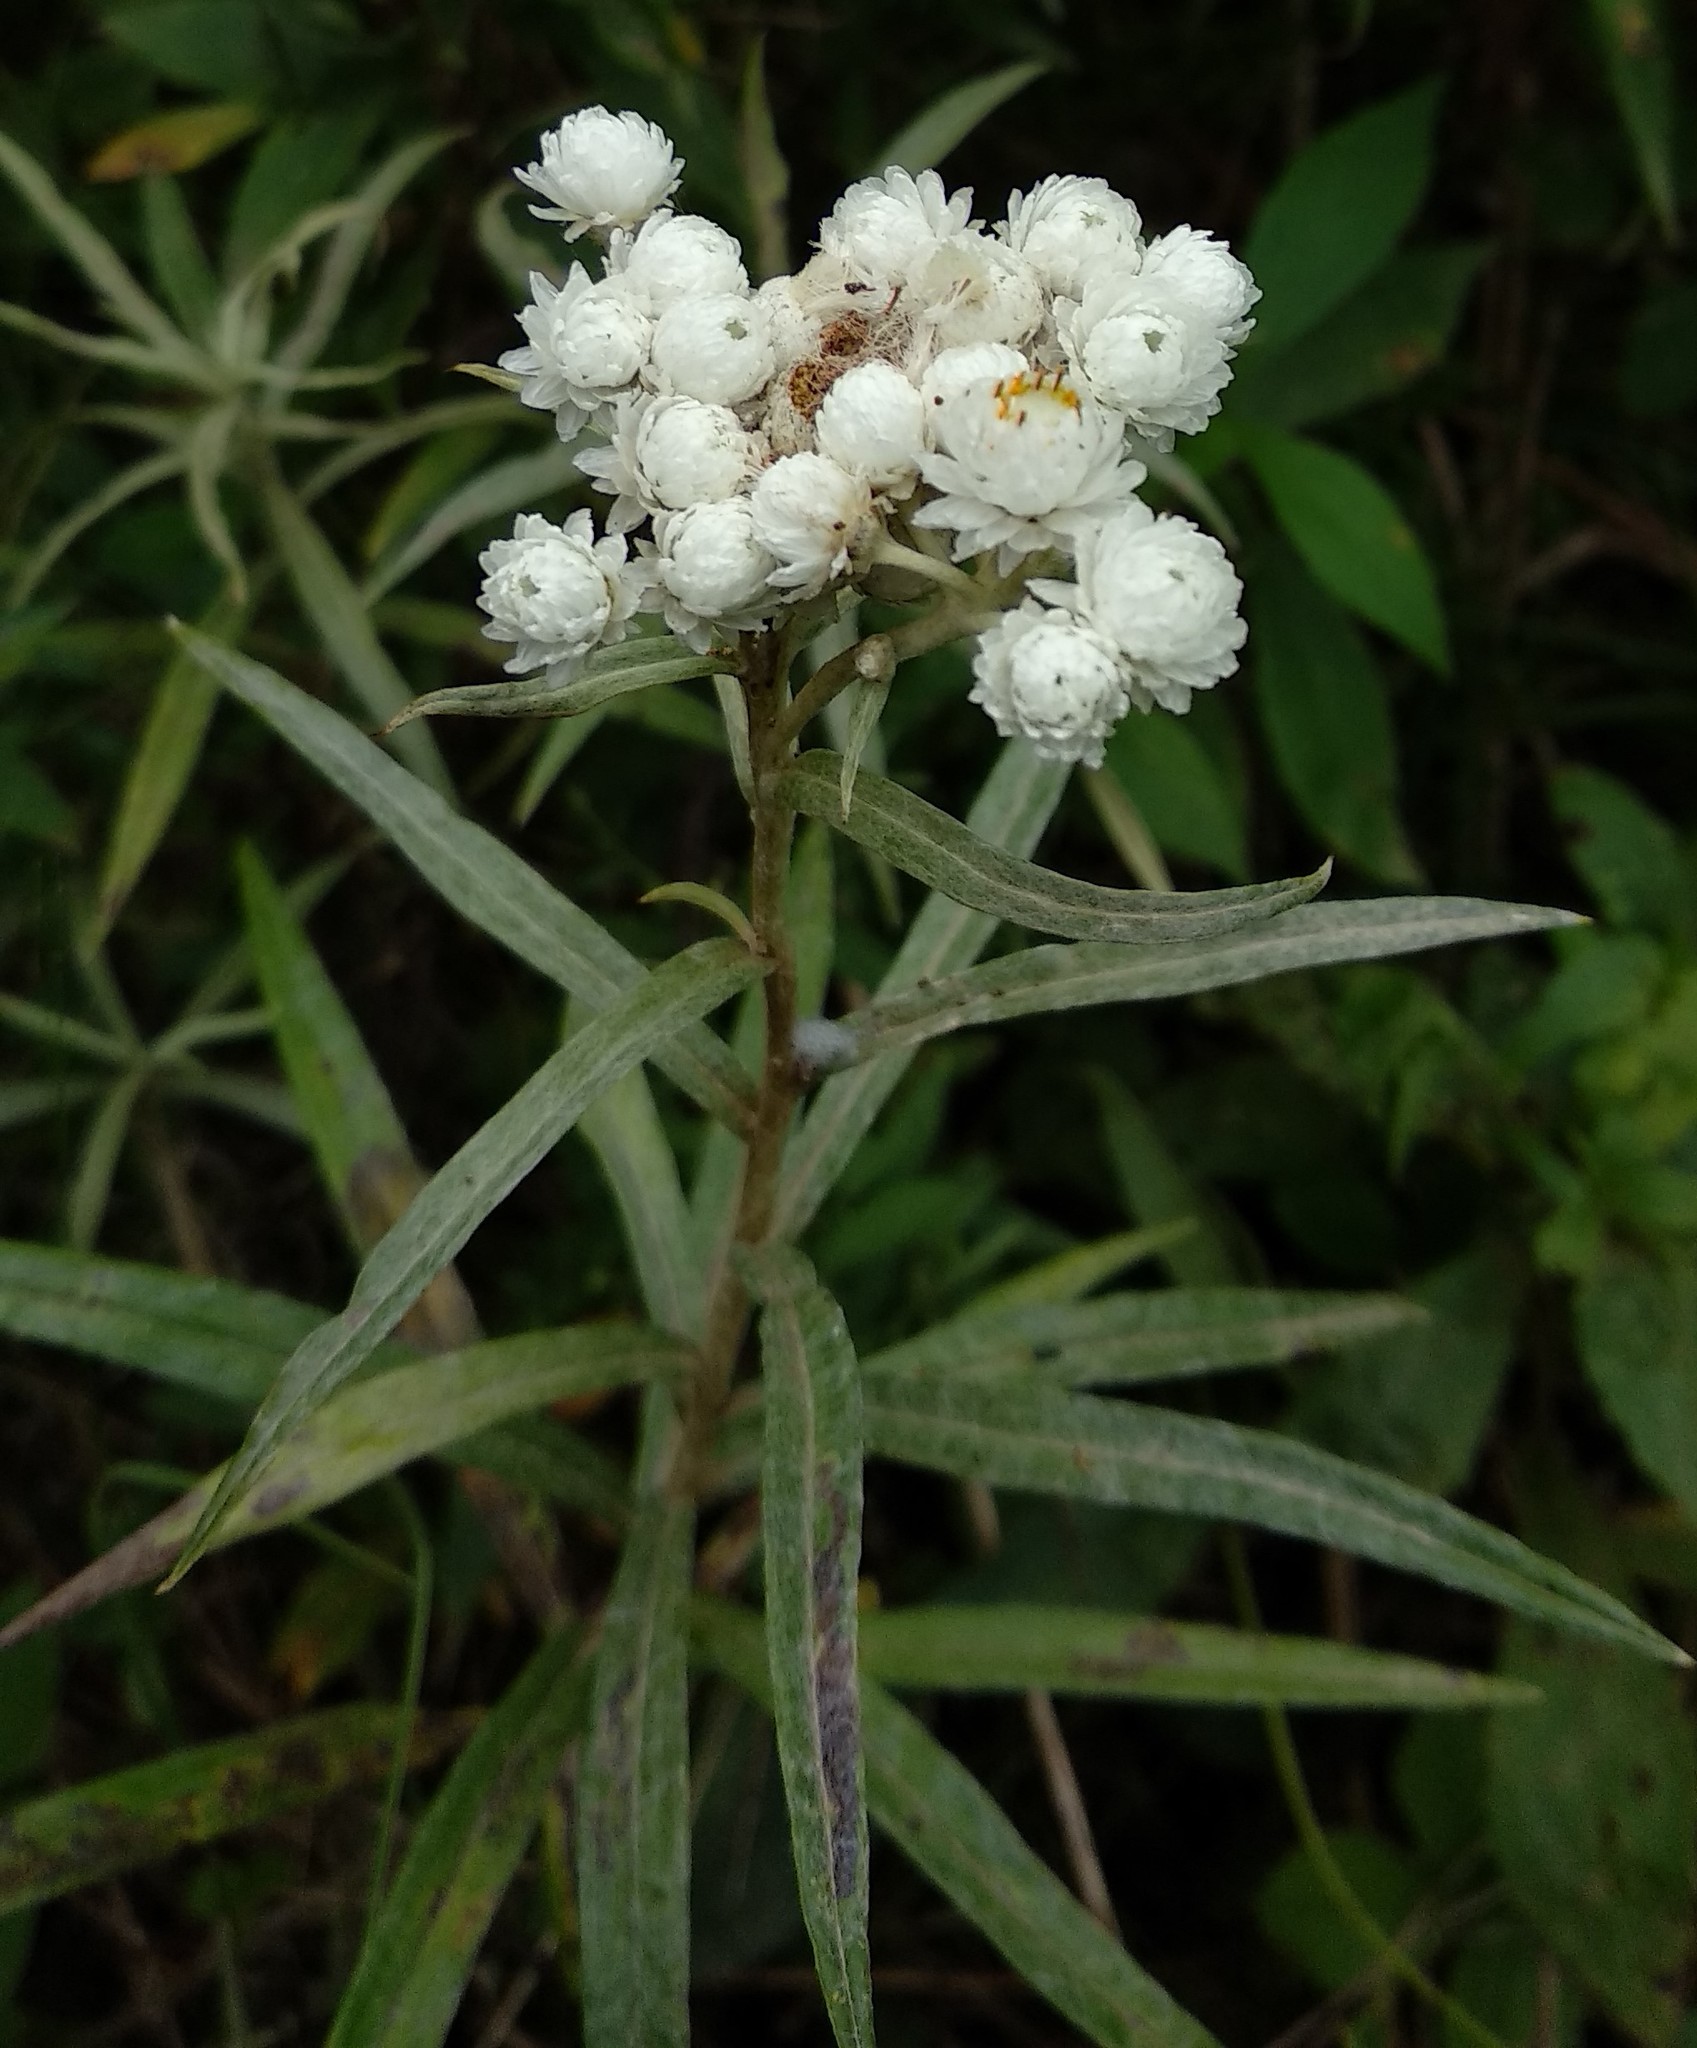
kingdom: Plantae
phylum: Tracheophyta
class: Magnoliopsida
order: Asterales
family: Asteraceae
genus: Anaphalis
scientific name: Anaphalis margaritacea
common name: Pearly everlasting
